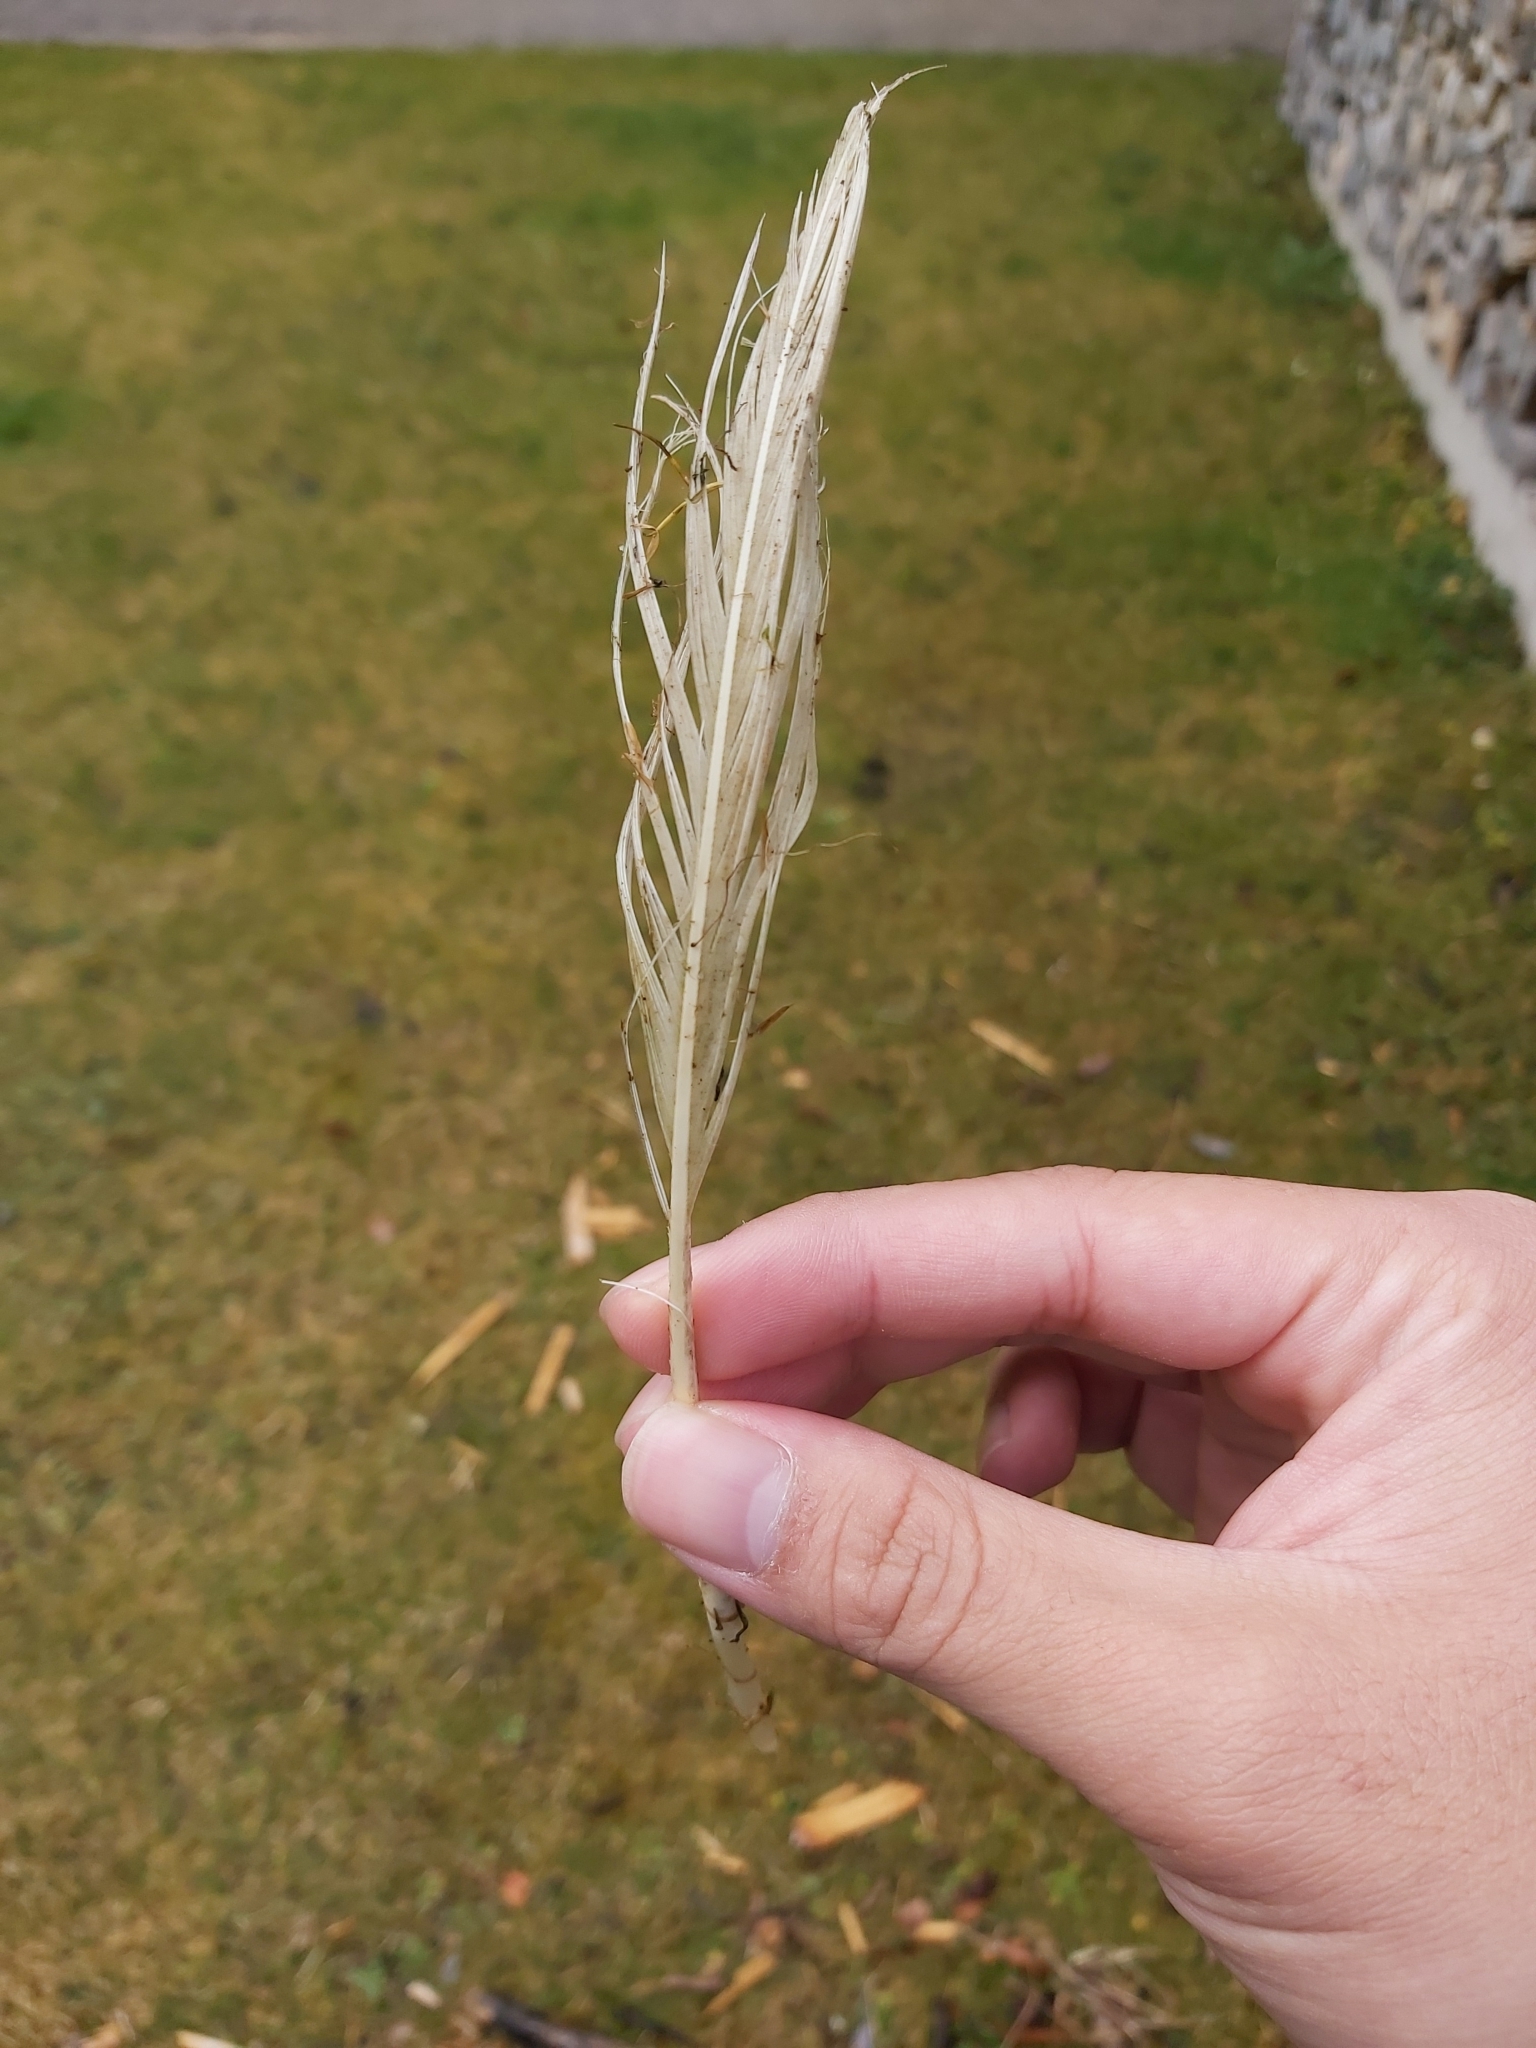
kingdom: Animalia
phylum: Chordata
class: Aves
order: Anseriformes
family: Anatidae
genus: Cygnus
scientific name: Cygnus olor
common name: Mute swan
